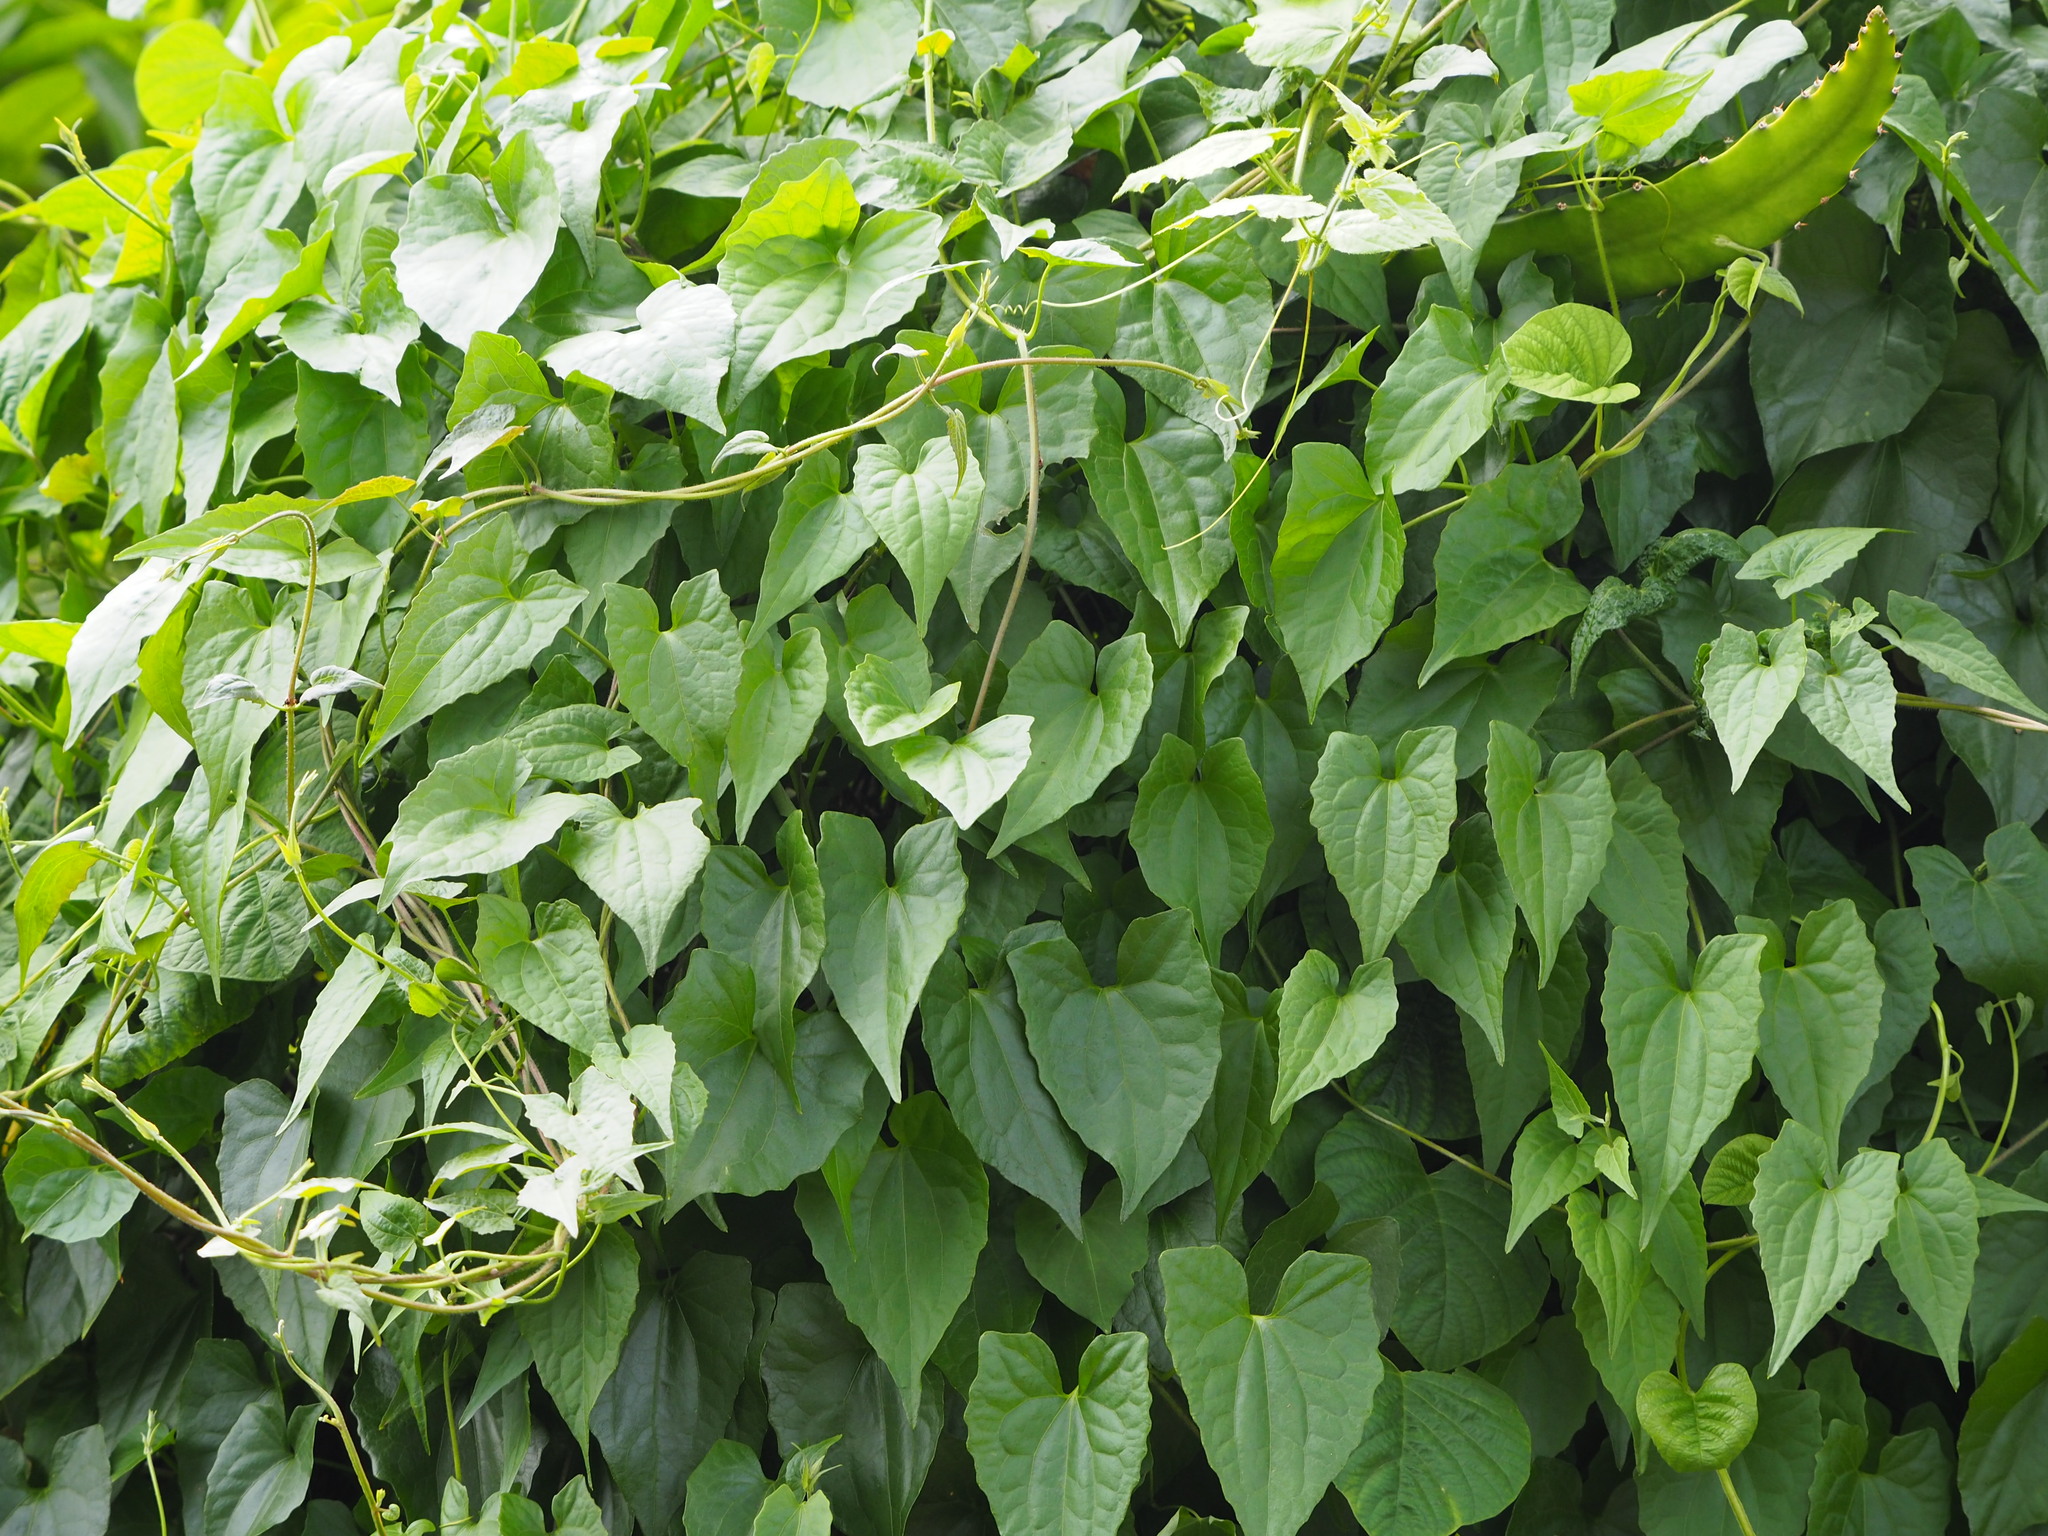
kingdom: Plantae
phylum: Tracheophyta
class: Magnoliopsida
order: Asterales
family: Asteraceae
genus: Mikania
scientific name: Mikania micrantha
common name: Mile-a-minute
